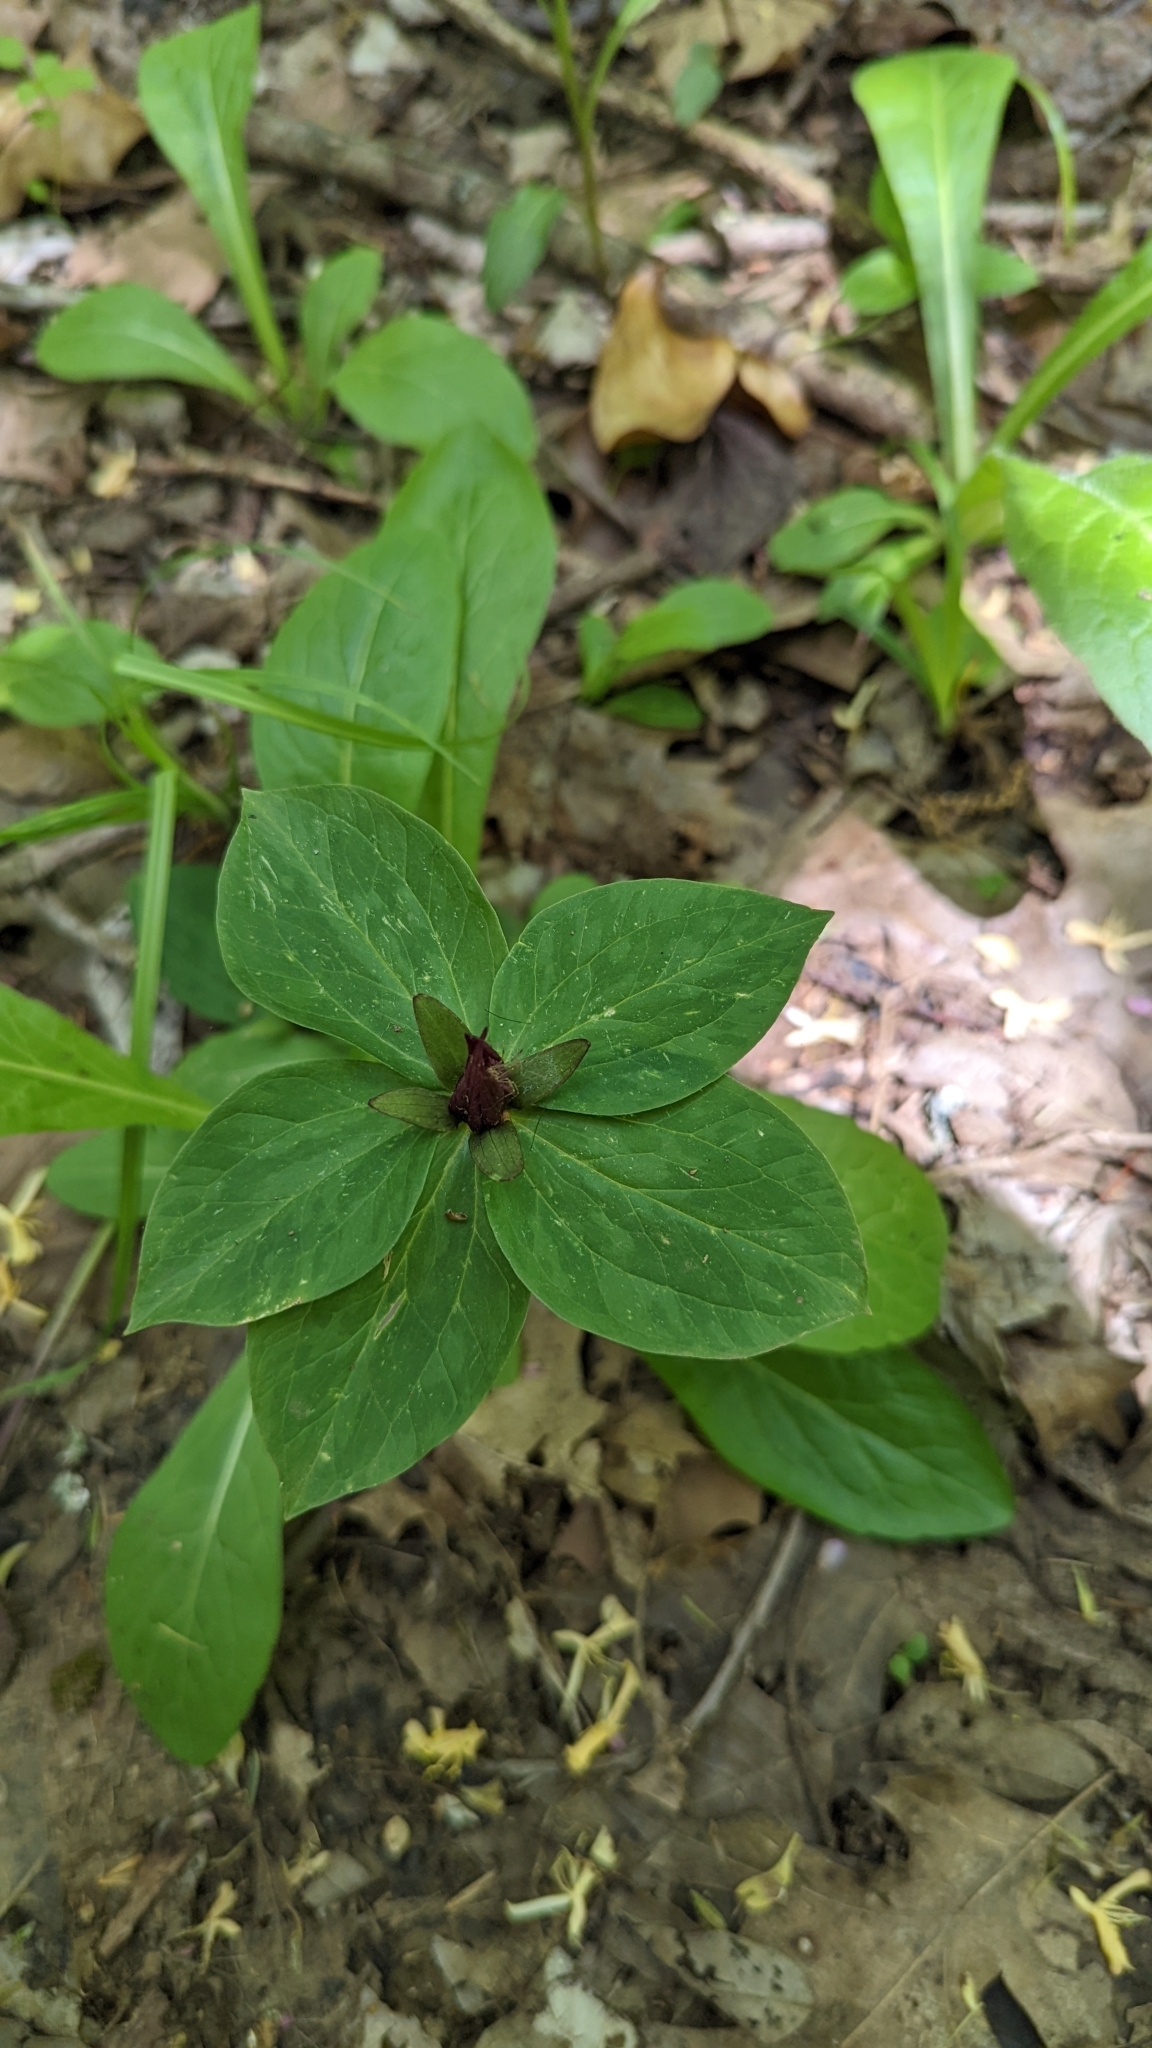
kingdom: Plantae
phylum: Tracheophyta
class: Liliopsida
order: Liliales
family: Melanthiaceae
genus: Trillium
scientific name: Trillium sessile
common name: Sessile trillium
